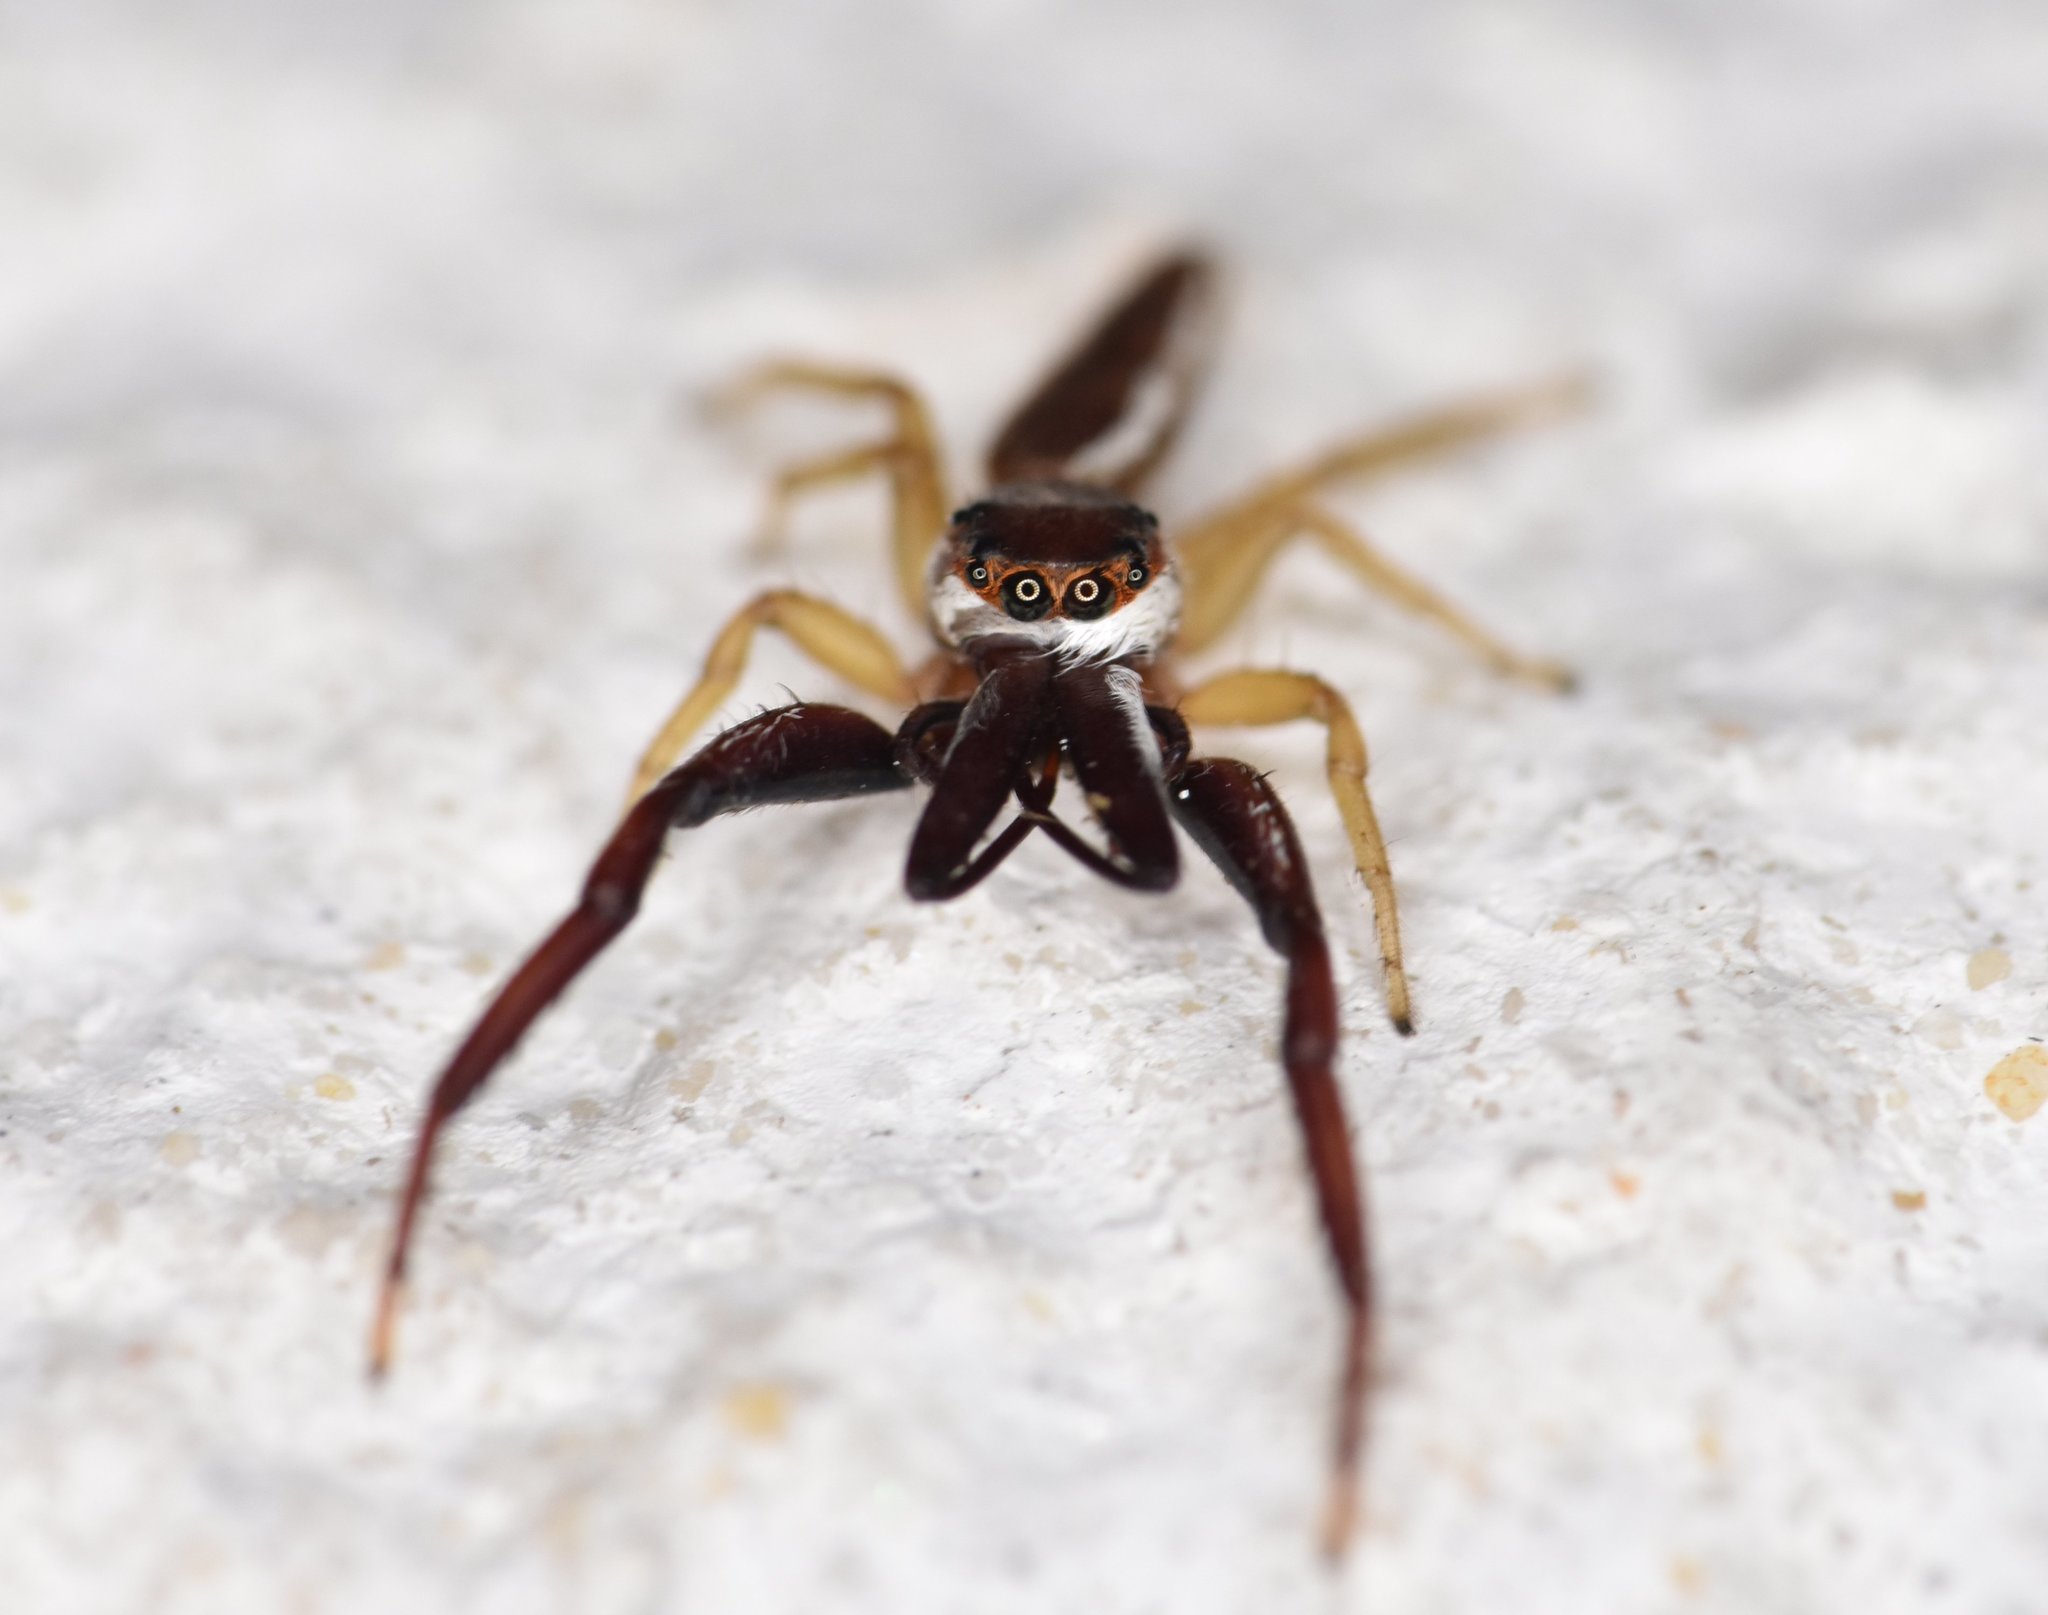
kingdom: Animalia
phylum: Arthropoda
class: Arachnida
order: Araneae
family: Salticidae
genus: Hentzia
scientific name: Hentzia palmarum
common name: Common hentz jumping spider
